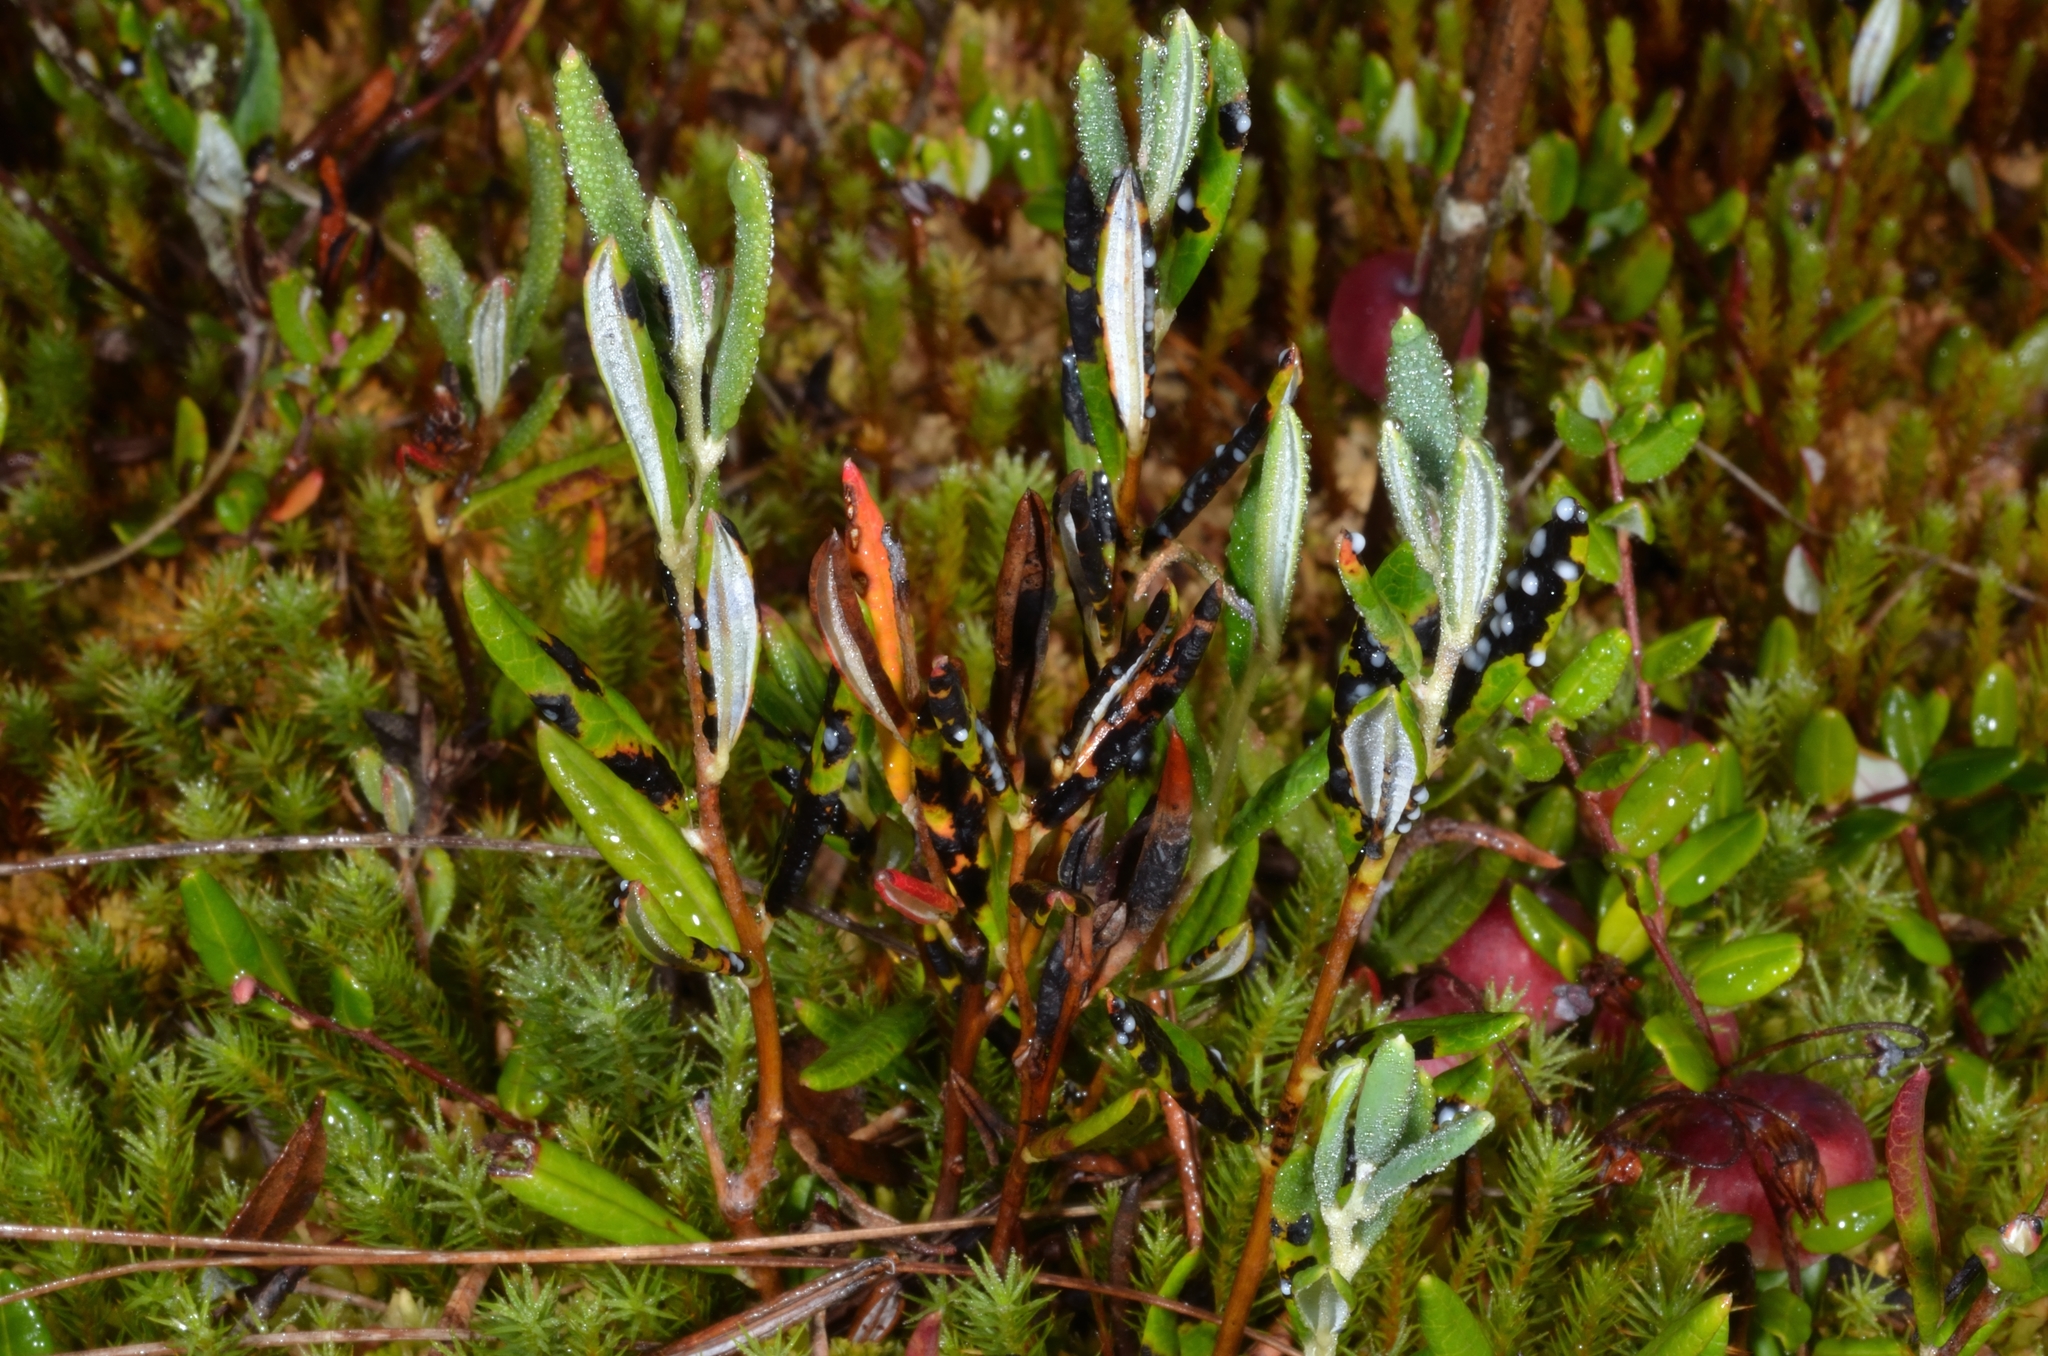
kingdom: Plantae
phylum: Tracheophyta
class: Magnoliopsida
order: Ericales
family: Ericaceae
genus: Andromeda
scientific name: Andromeda polifolia
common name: Bog-rosemary
